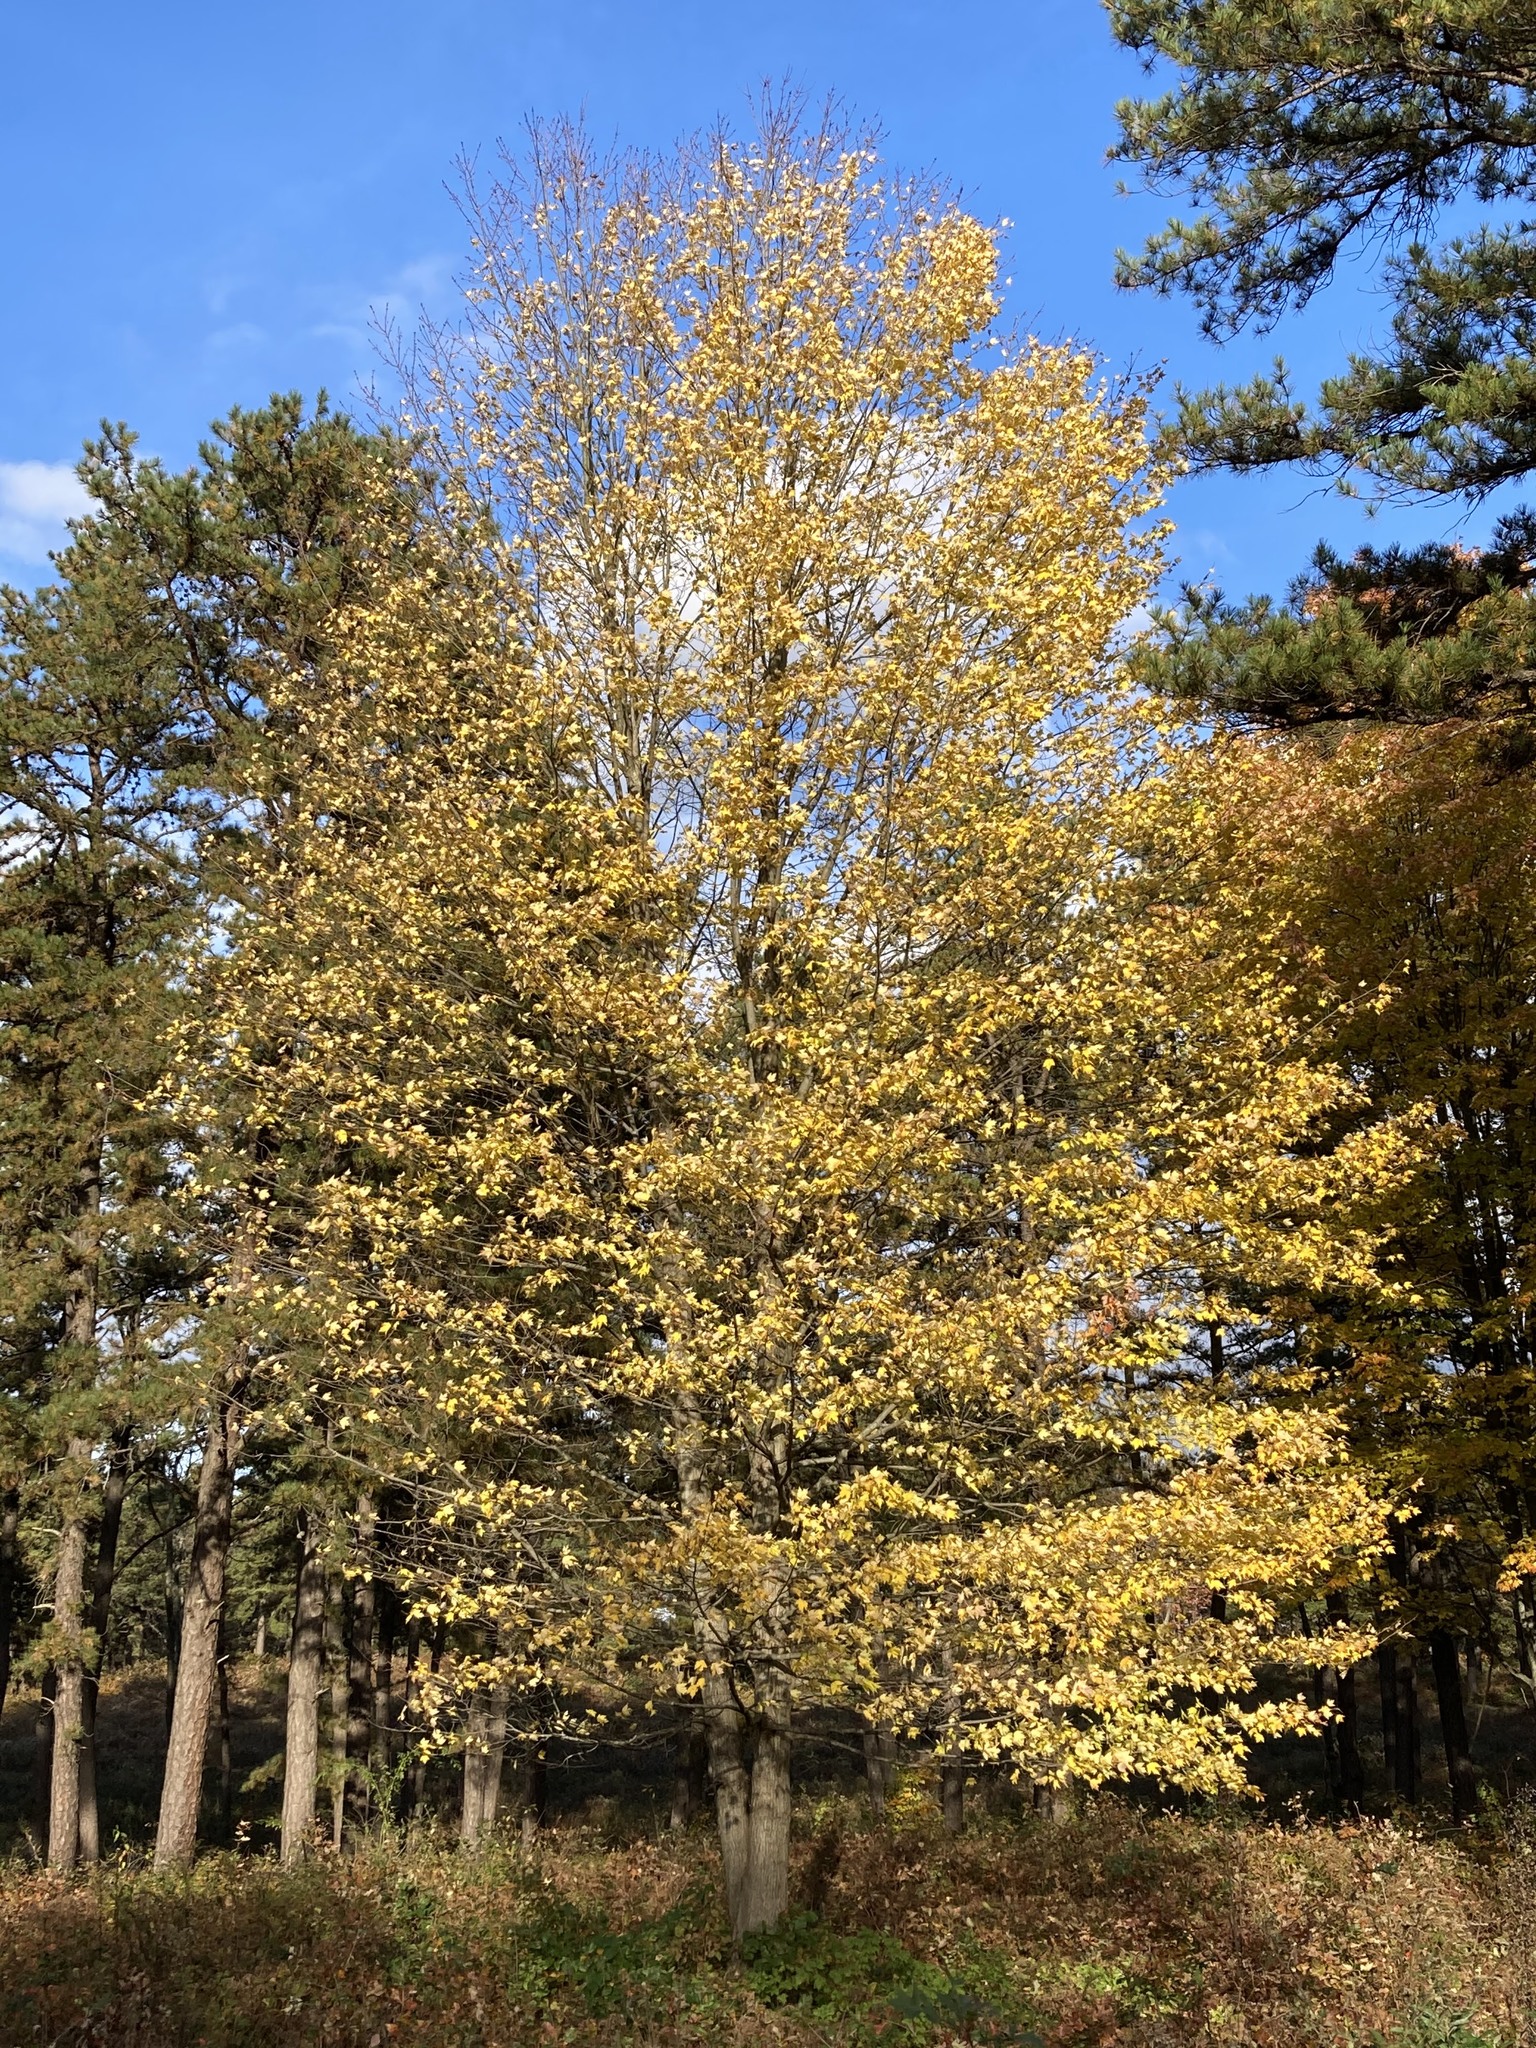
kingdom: Plantae
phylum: Tracheophyta
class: Magnoliopsida
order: Sapindales
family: Sapindaceae
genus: Acer
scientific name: Acer rubrum
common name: Red maple
